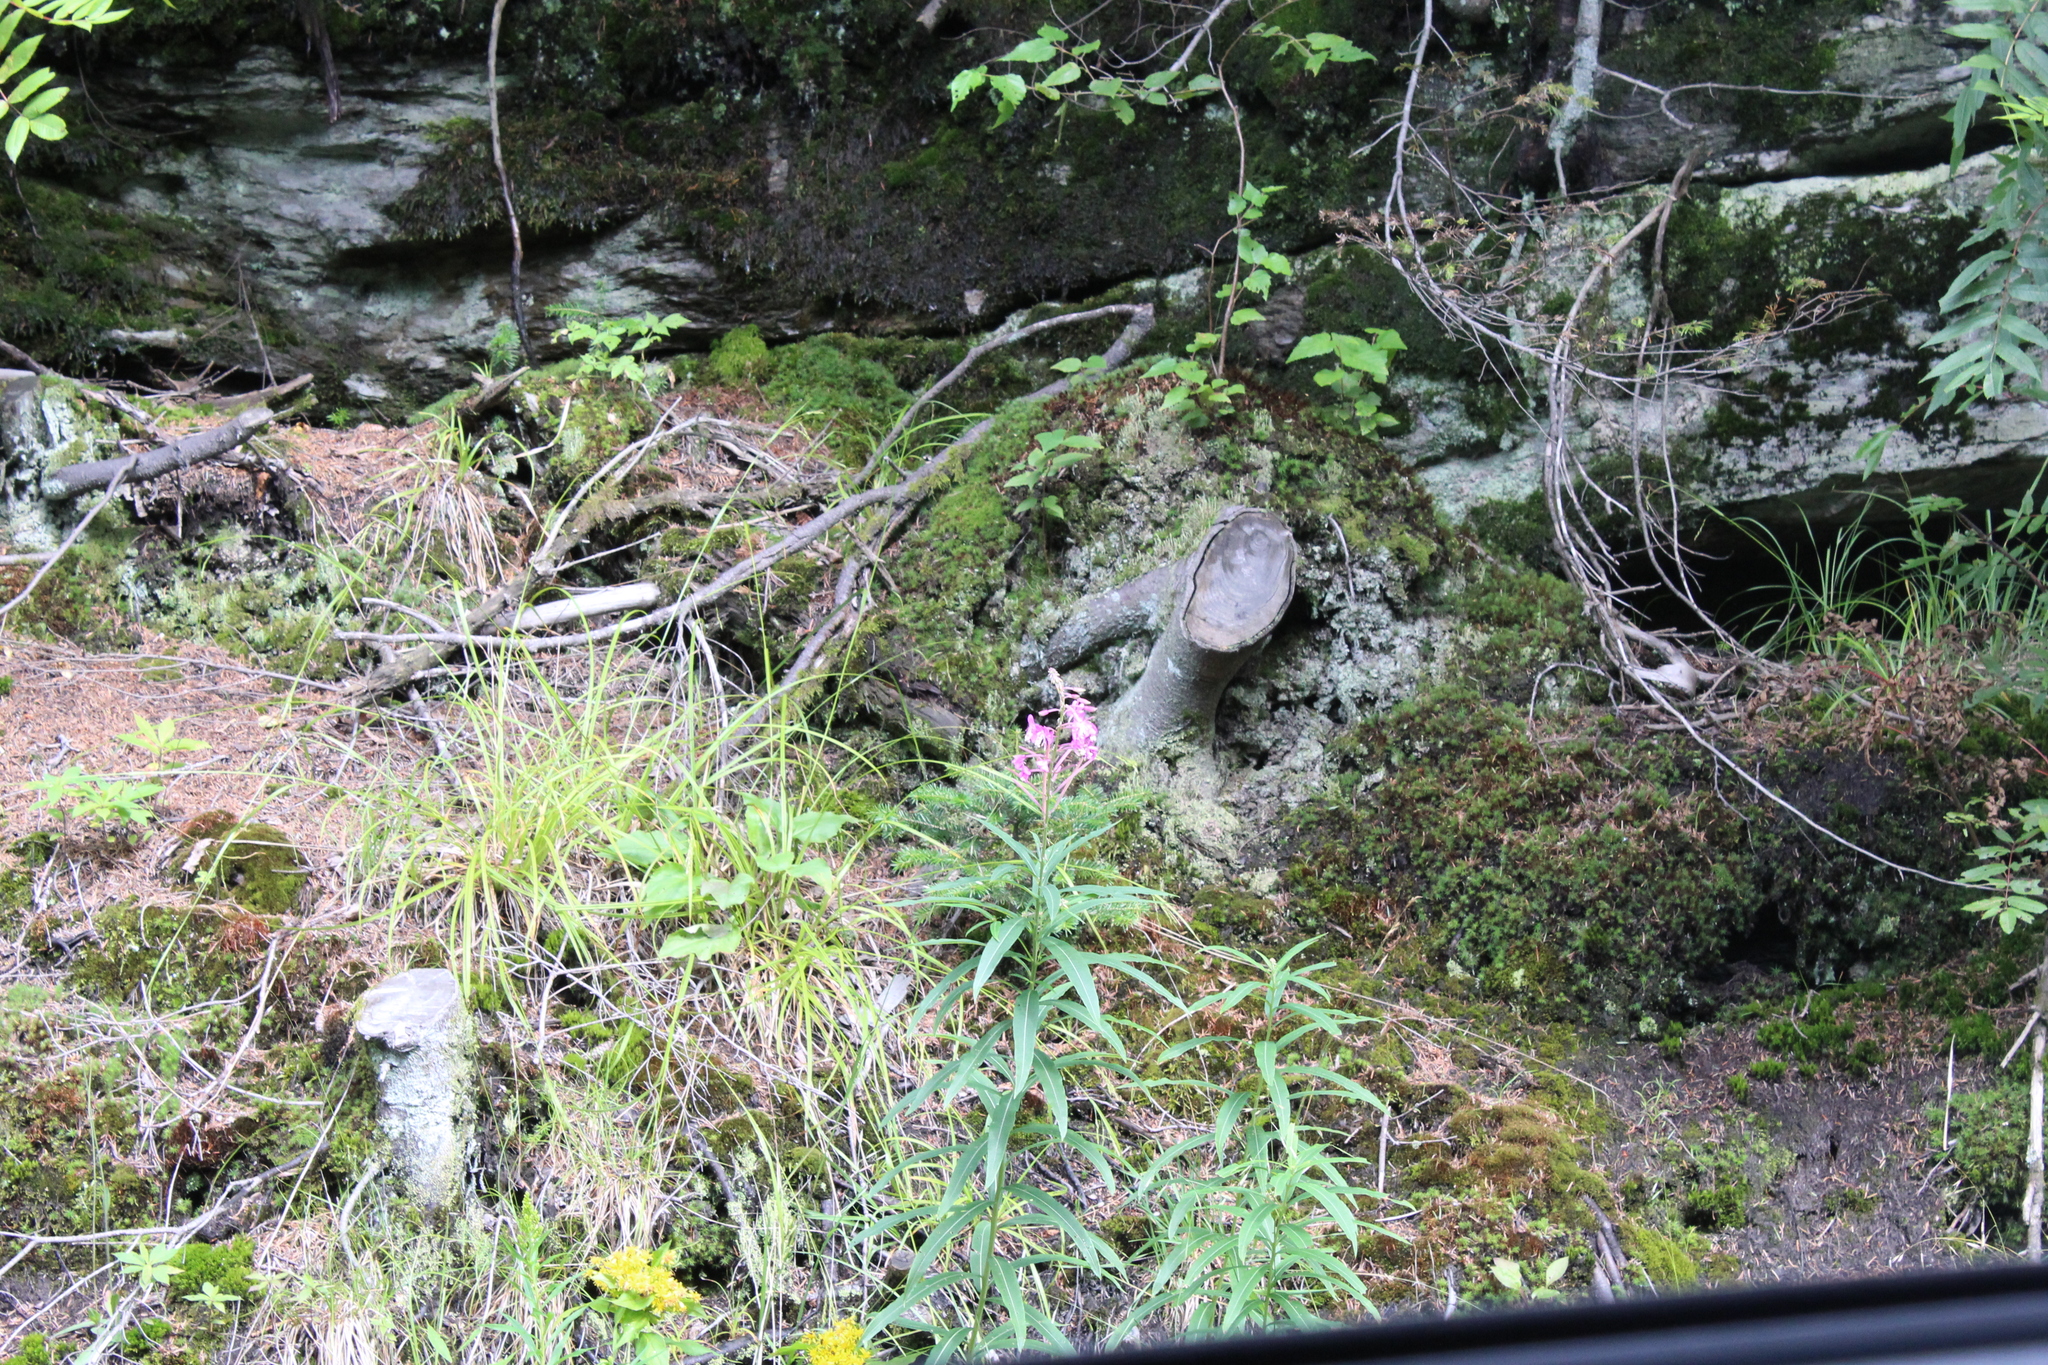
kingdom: Plantae
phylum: Tracheophyta
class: Magnoliopsida
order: Myrtales
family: Onagraceae
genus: Chamaenerion
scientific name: Chamaenerion angustifolium
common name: Fireweed
